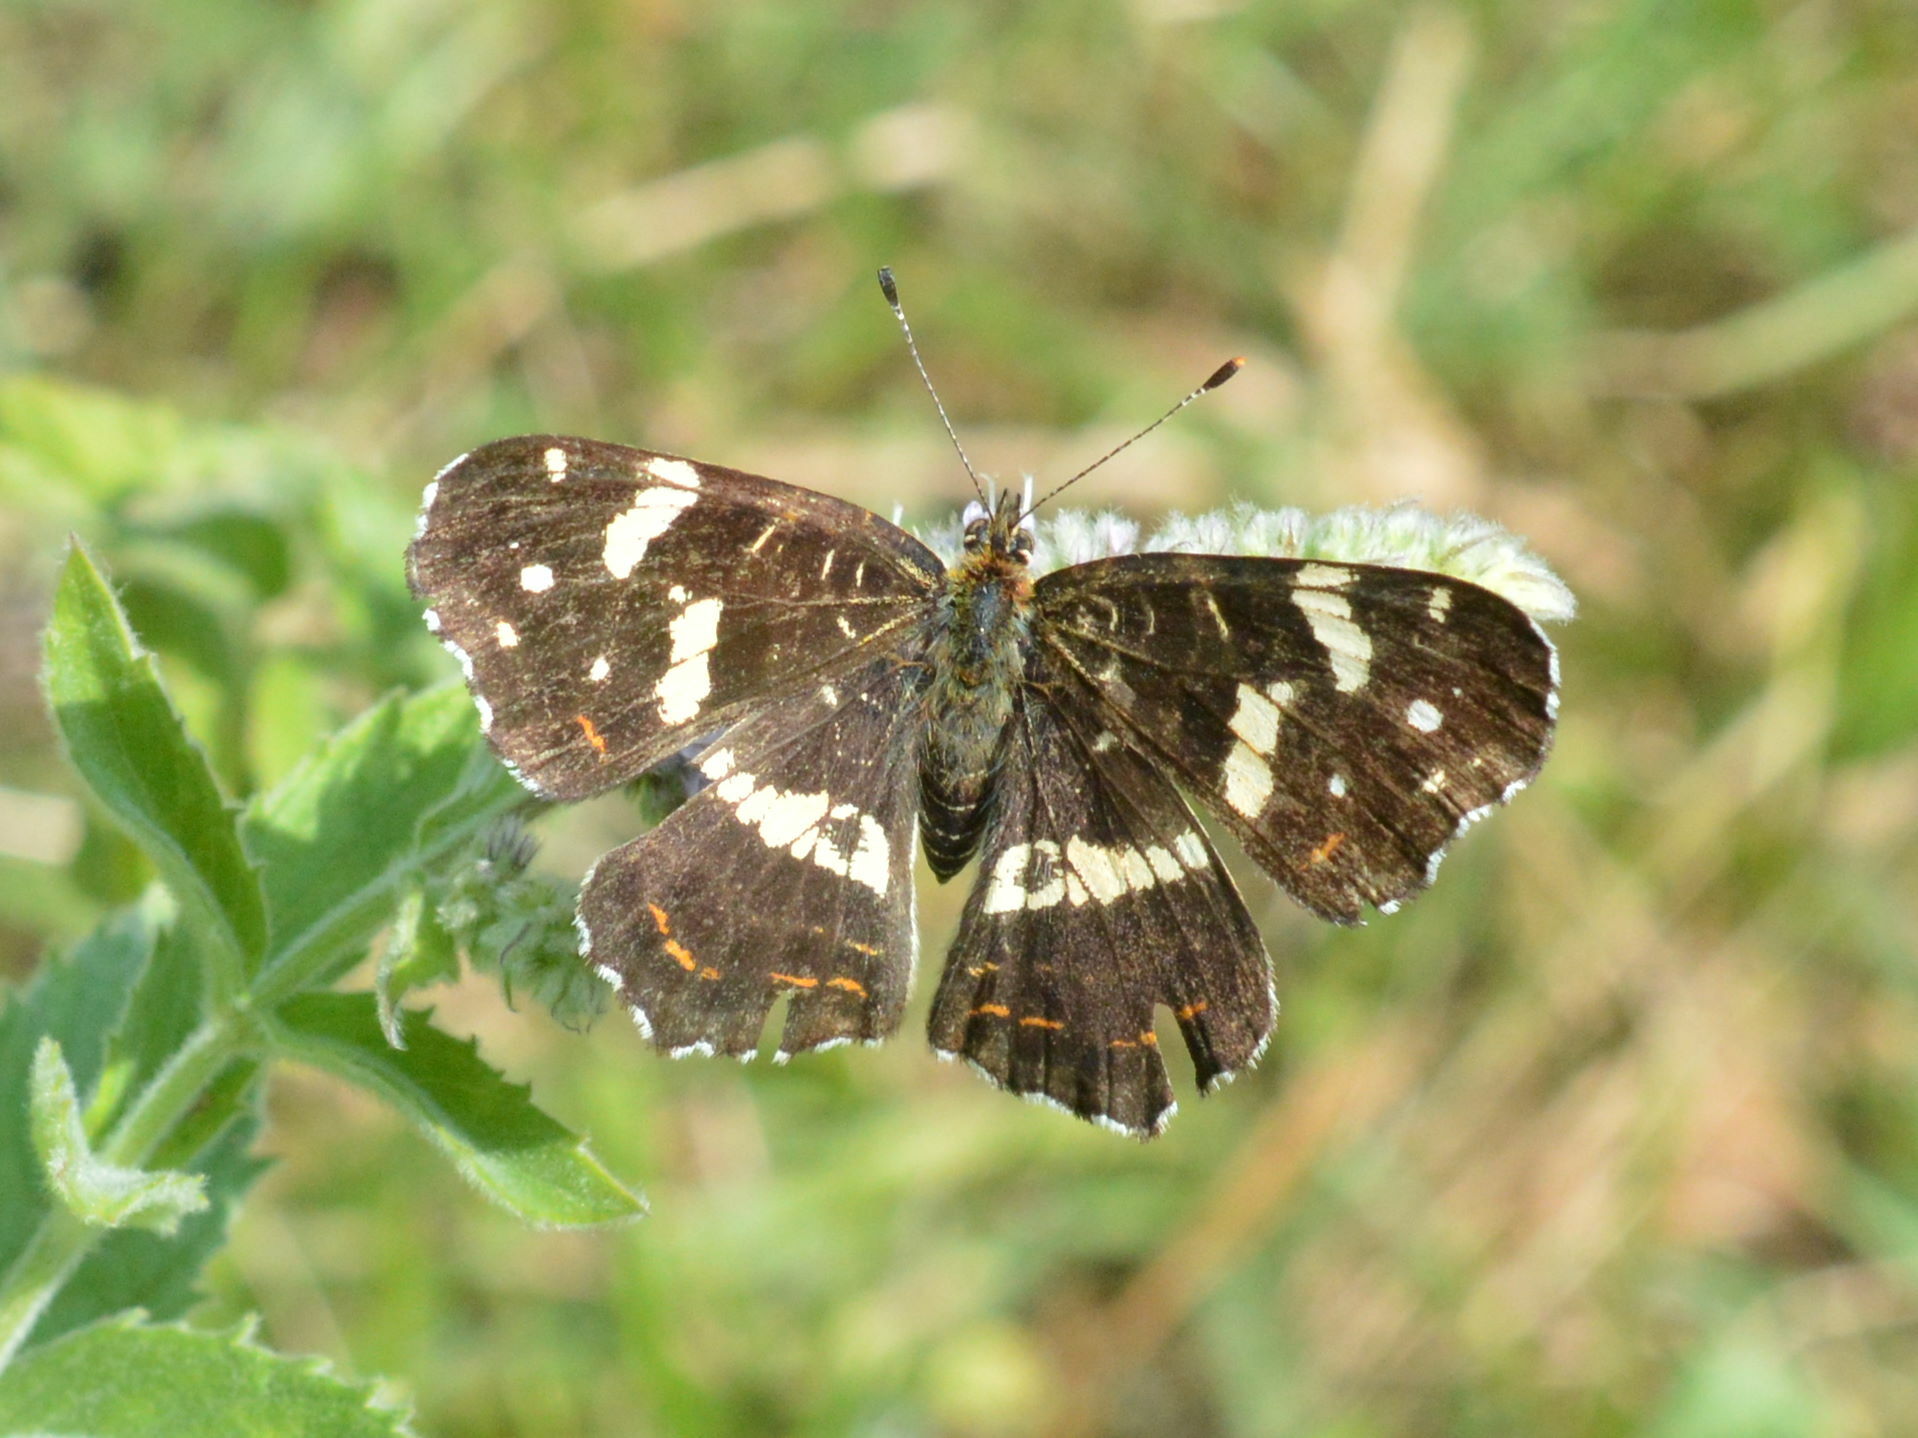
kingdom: Animalia
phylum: Arthropoda
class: Insecta
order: Lepidoptera
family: Nymphalidae
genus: Araschnia
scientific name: Araschnia levana
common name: Map butterfly
